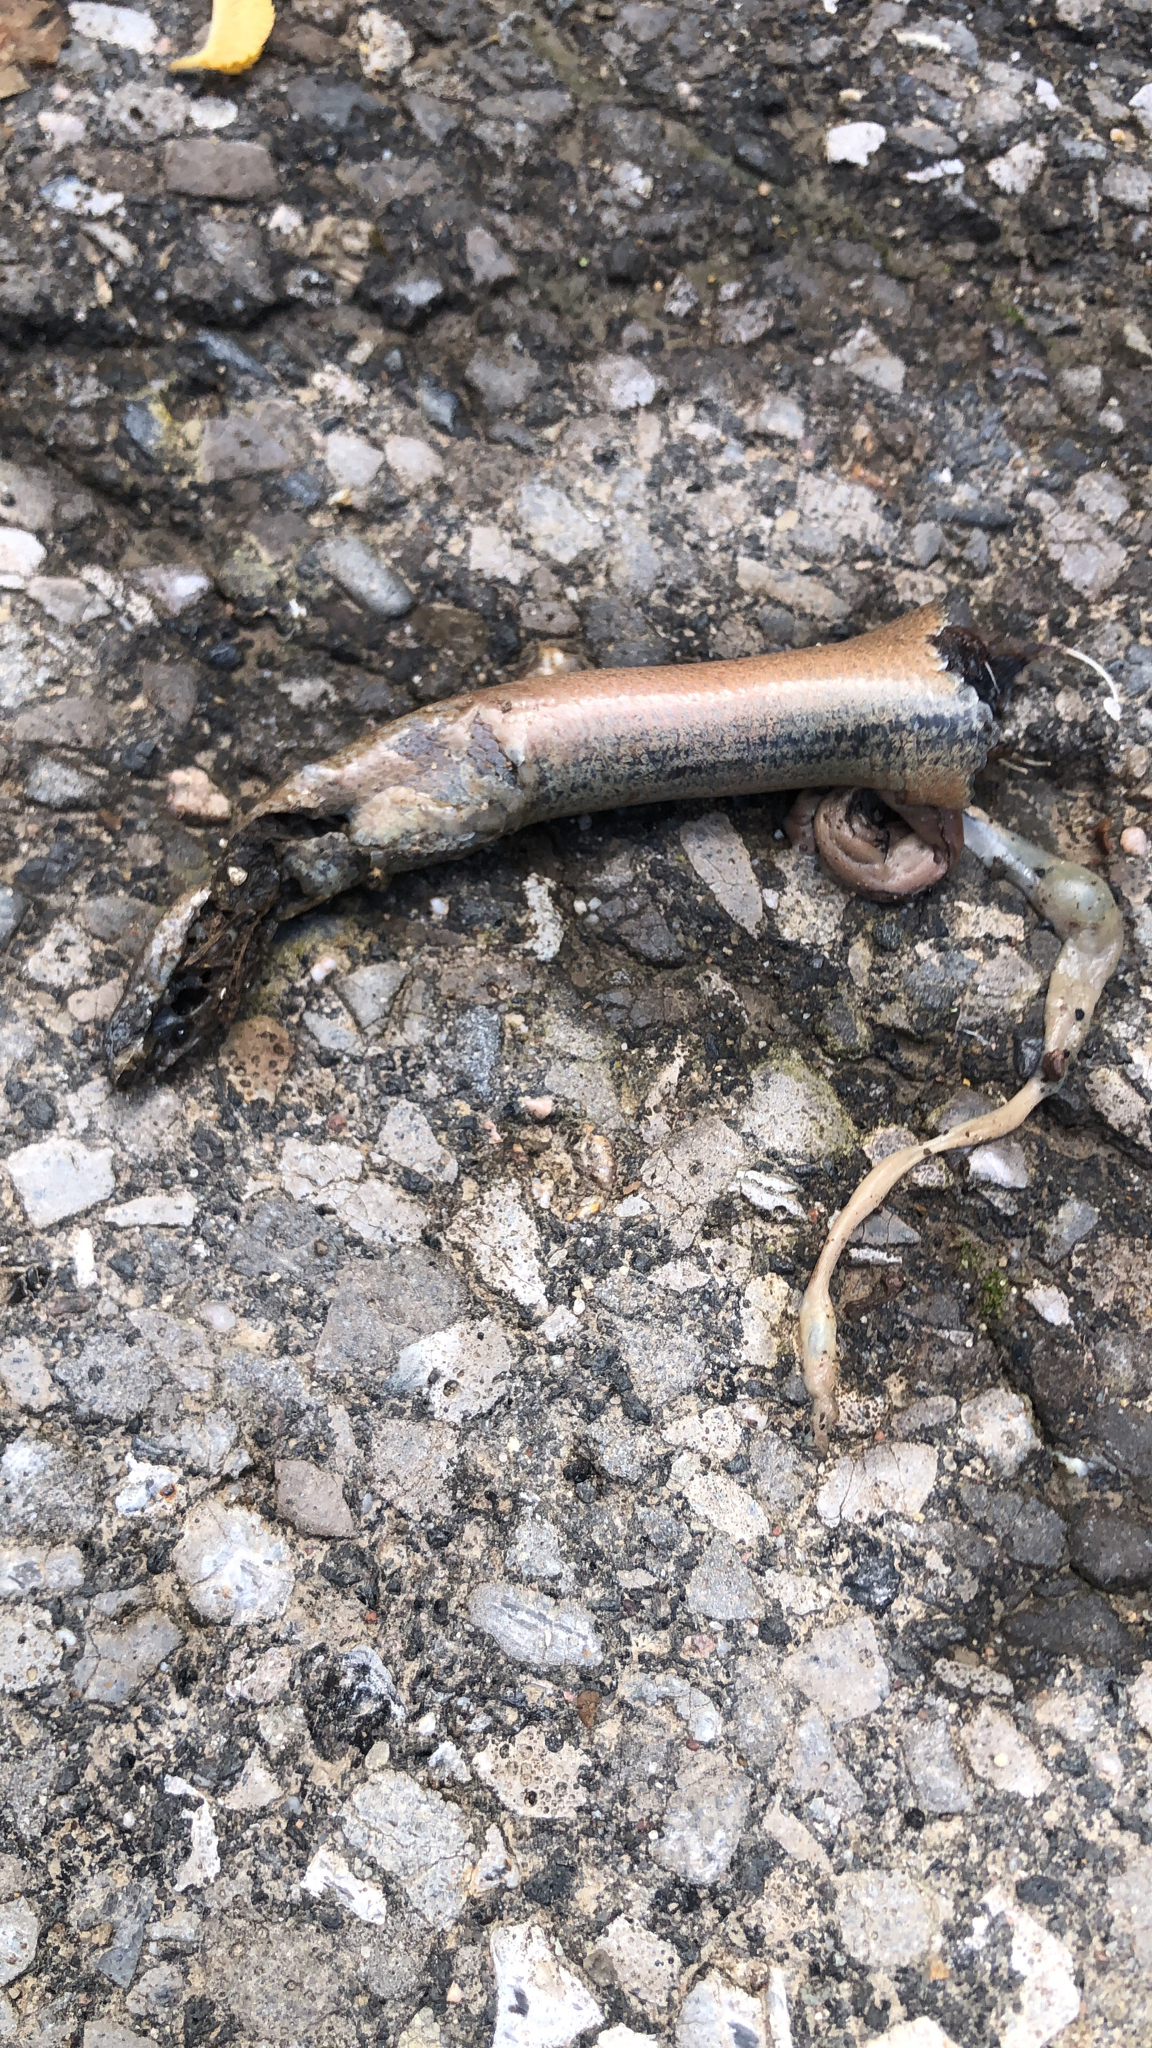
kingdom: Animalia
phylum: Chordata
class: Squamata
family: Anguidae
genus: Anguis
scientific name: Anguis fragilis
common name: Slow worm
